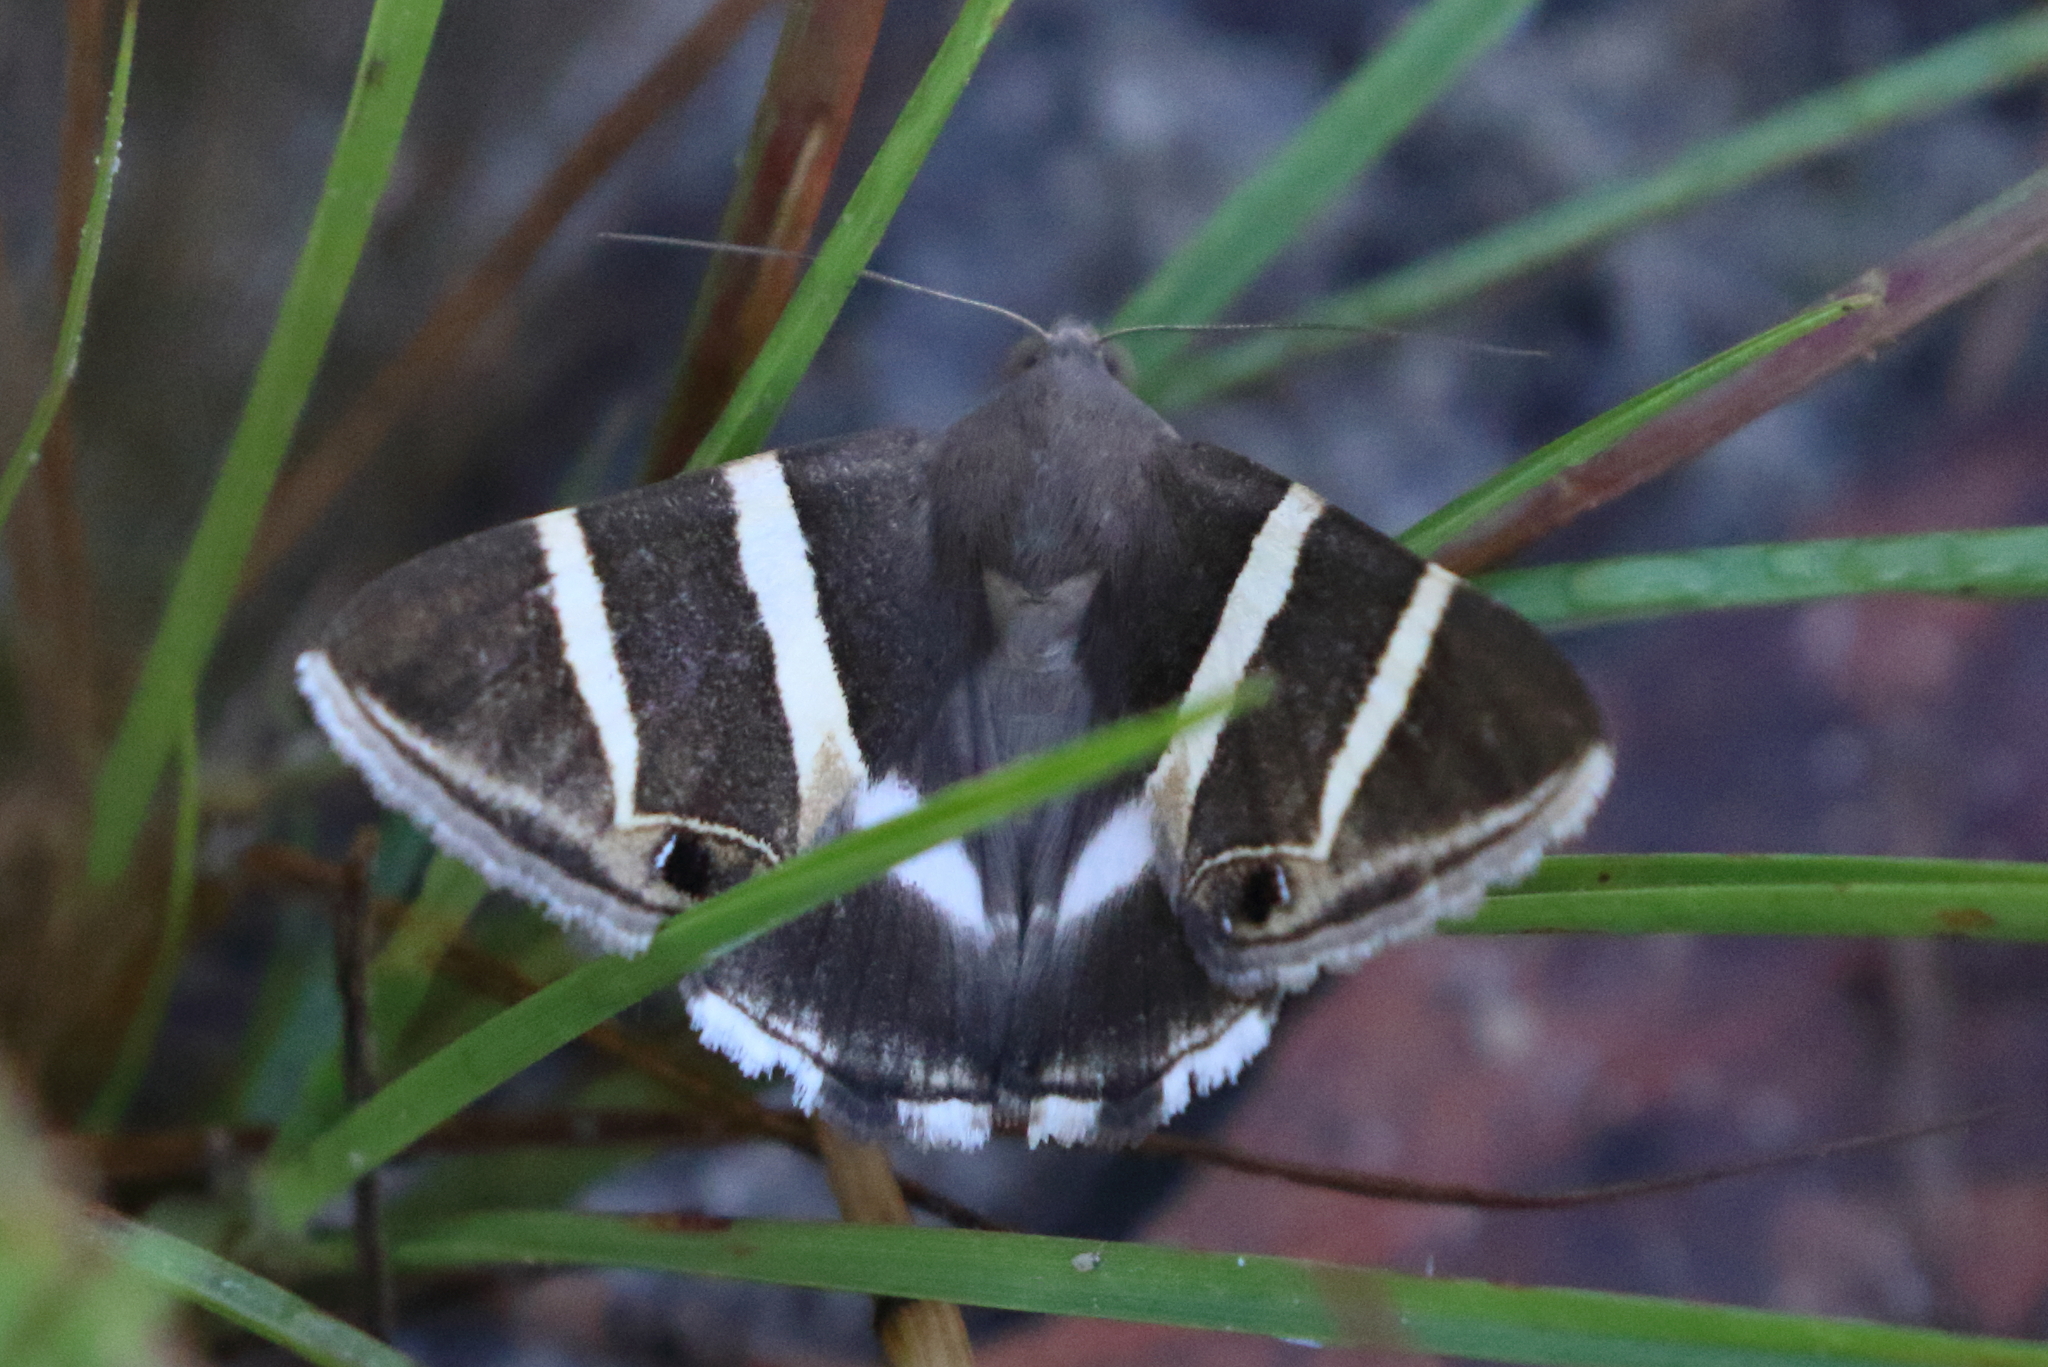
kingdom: Animalia
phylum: Arthropoda
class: Insecta
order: Lepidoptera
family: Erebidae
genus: Grammodes
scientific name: Grammodes oculicola
